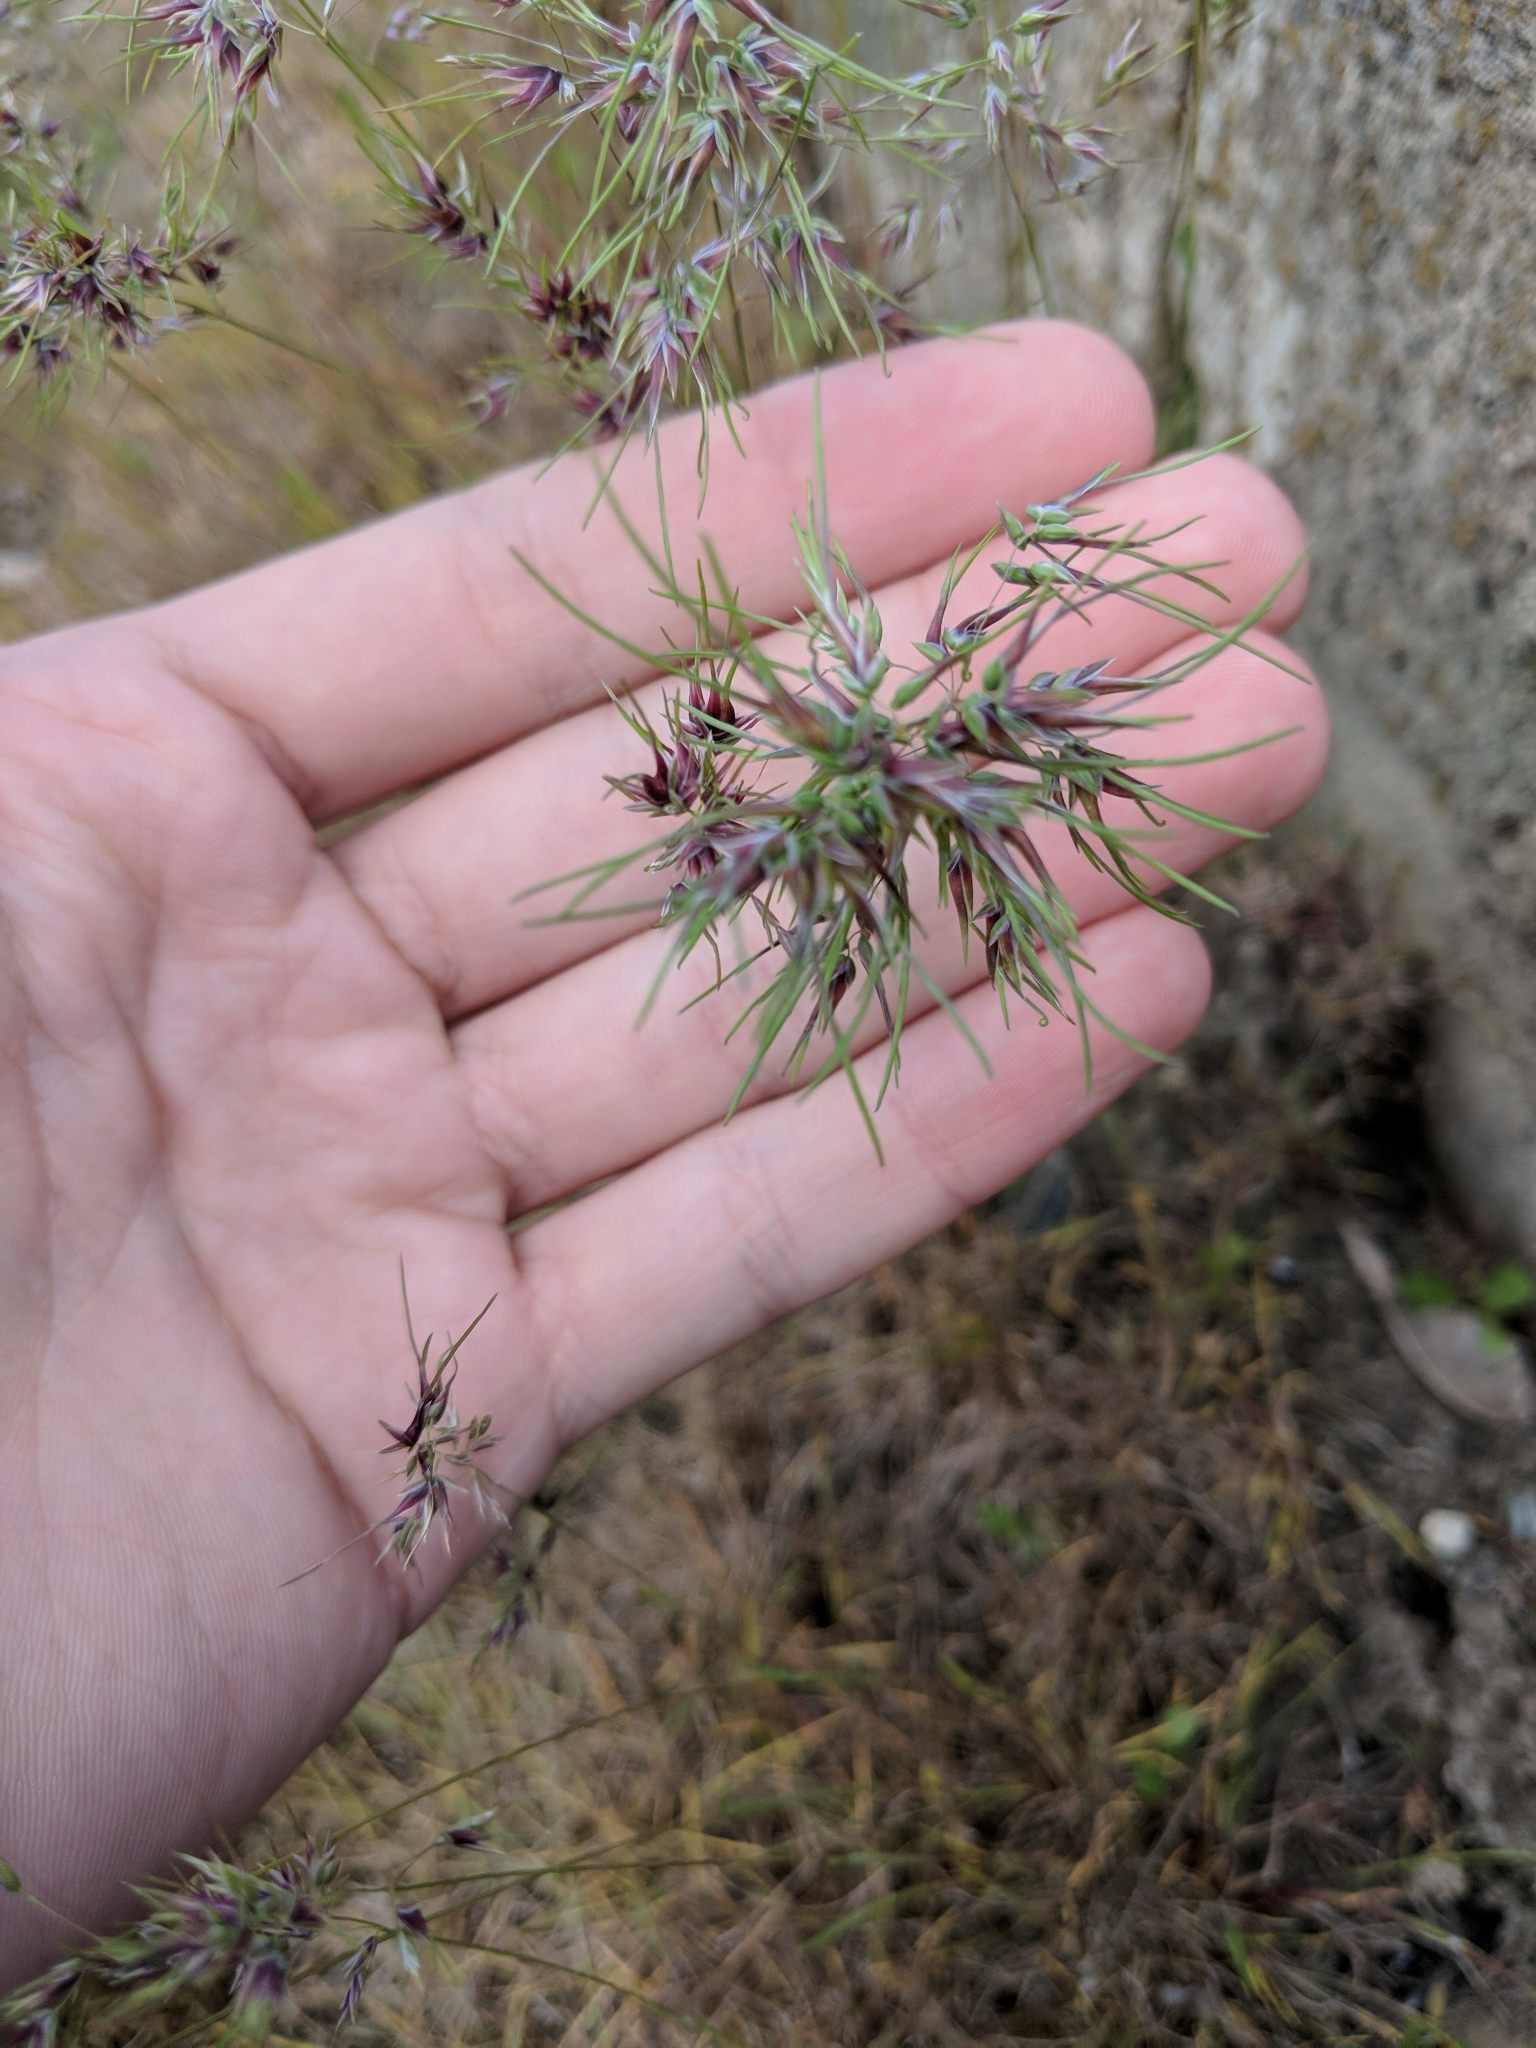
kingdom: Plantae
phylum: Tracheophyta
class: Liliopsida
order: Poales
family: Poaceae
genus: Poa
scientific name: Poa bulbosa
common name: Bulbous bluegrass
